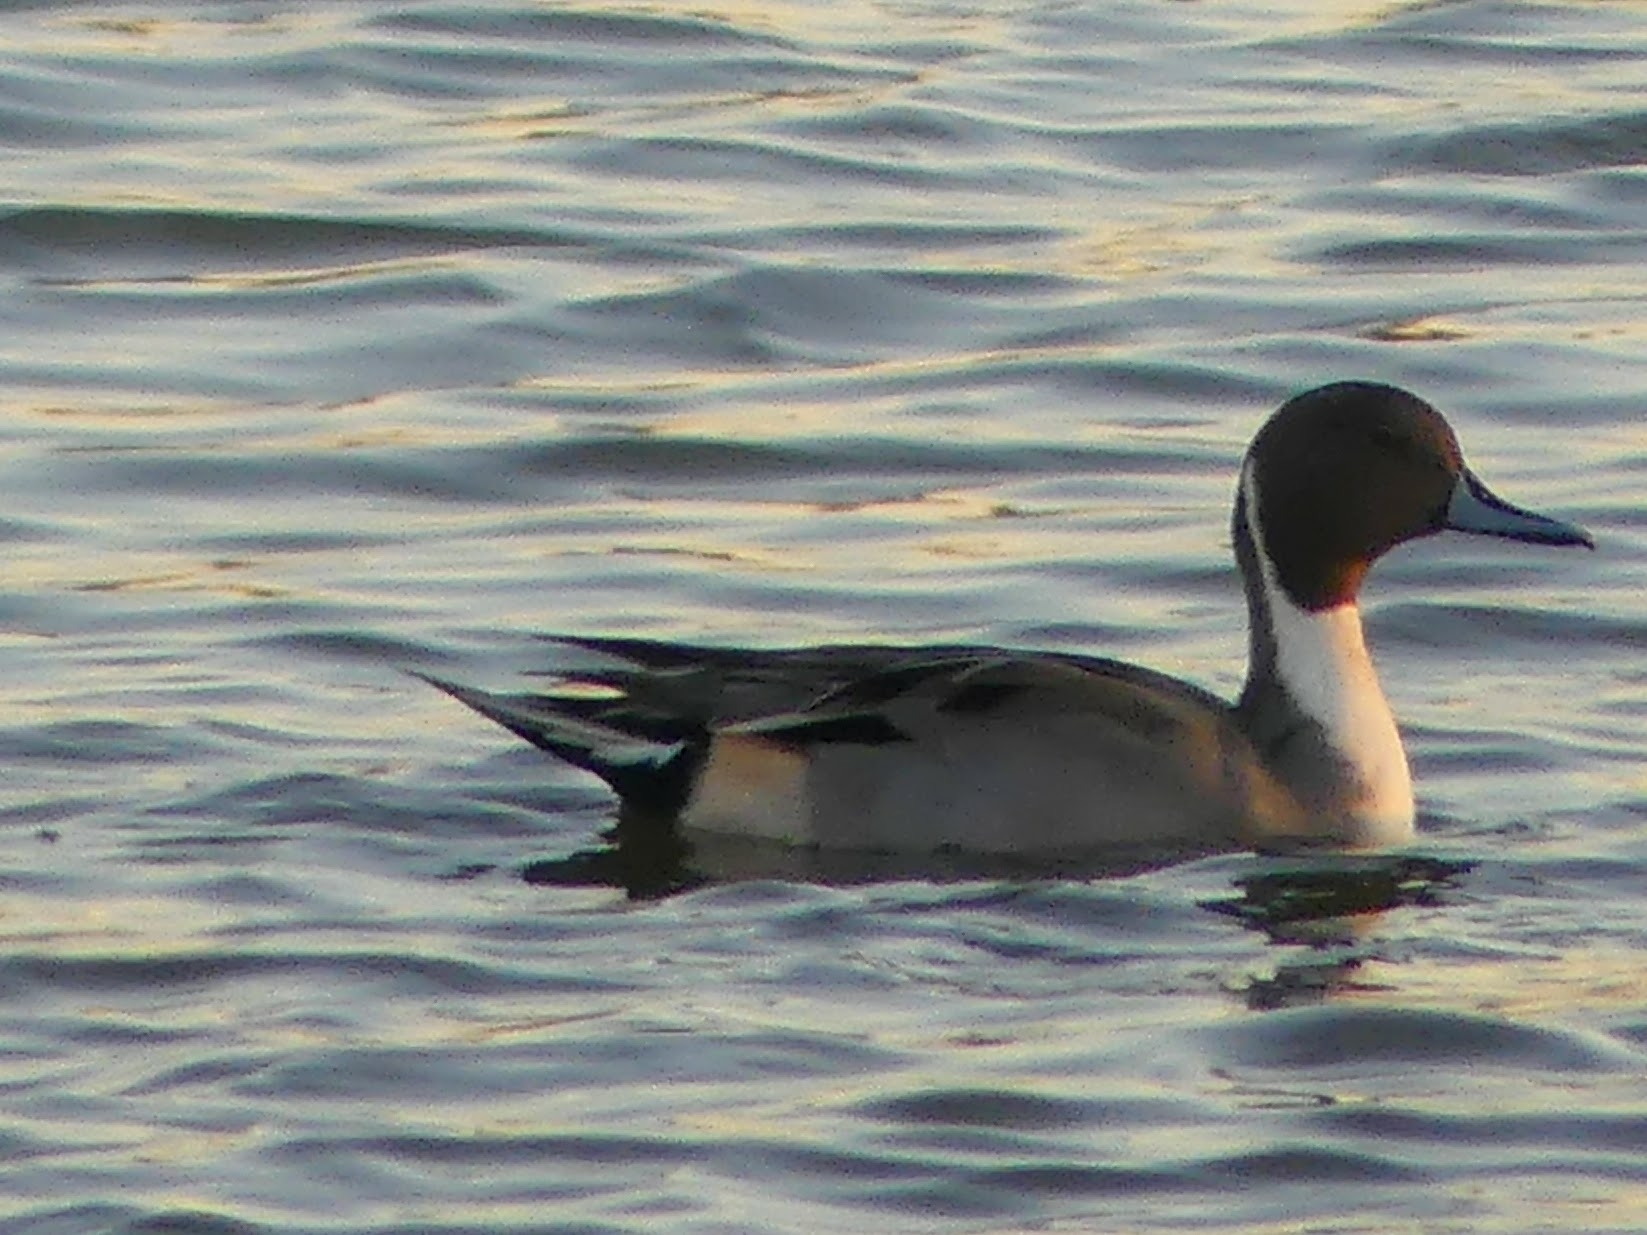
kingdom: Animalia
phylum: Chordata
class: Aves
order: Anseriformes
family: Anatidae
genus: Anas
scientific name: Anas acuta
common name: Northern pintail
